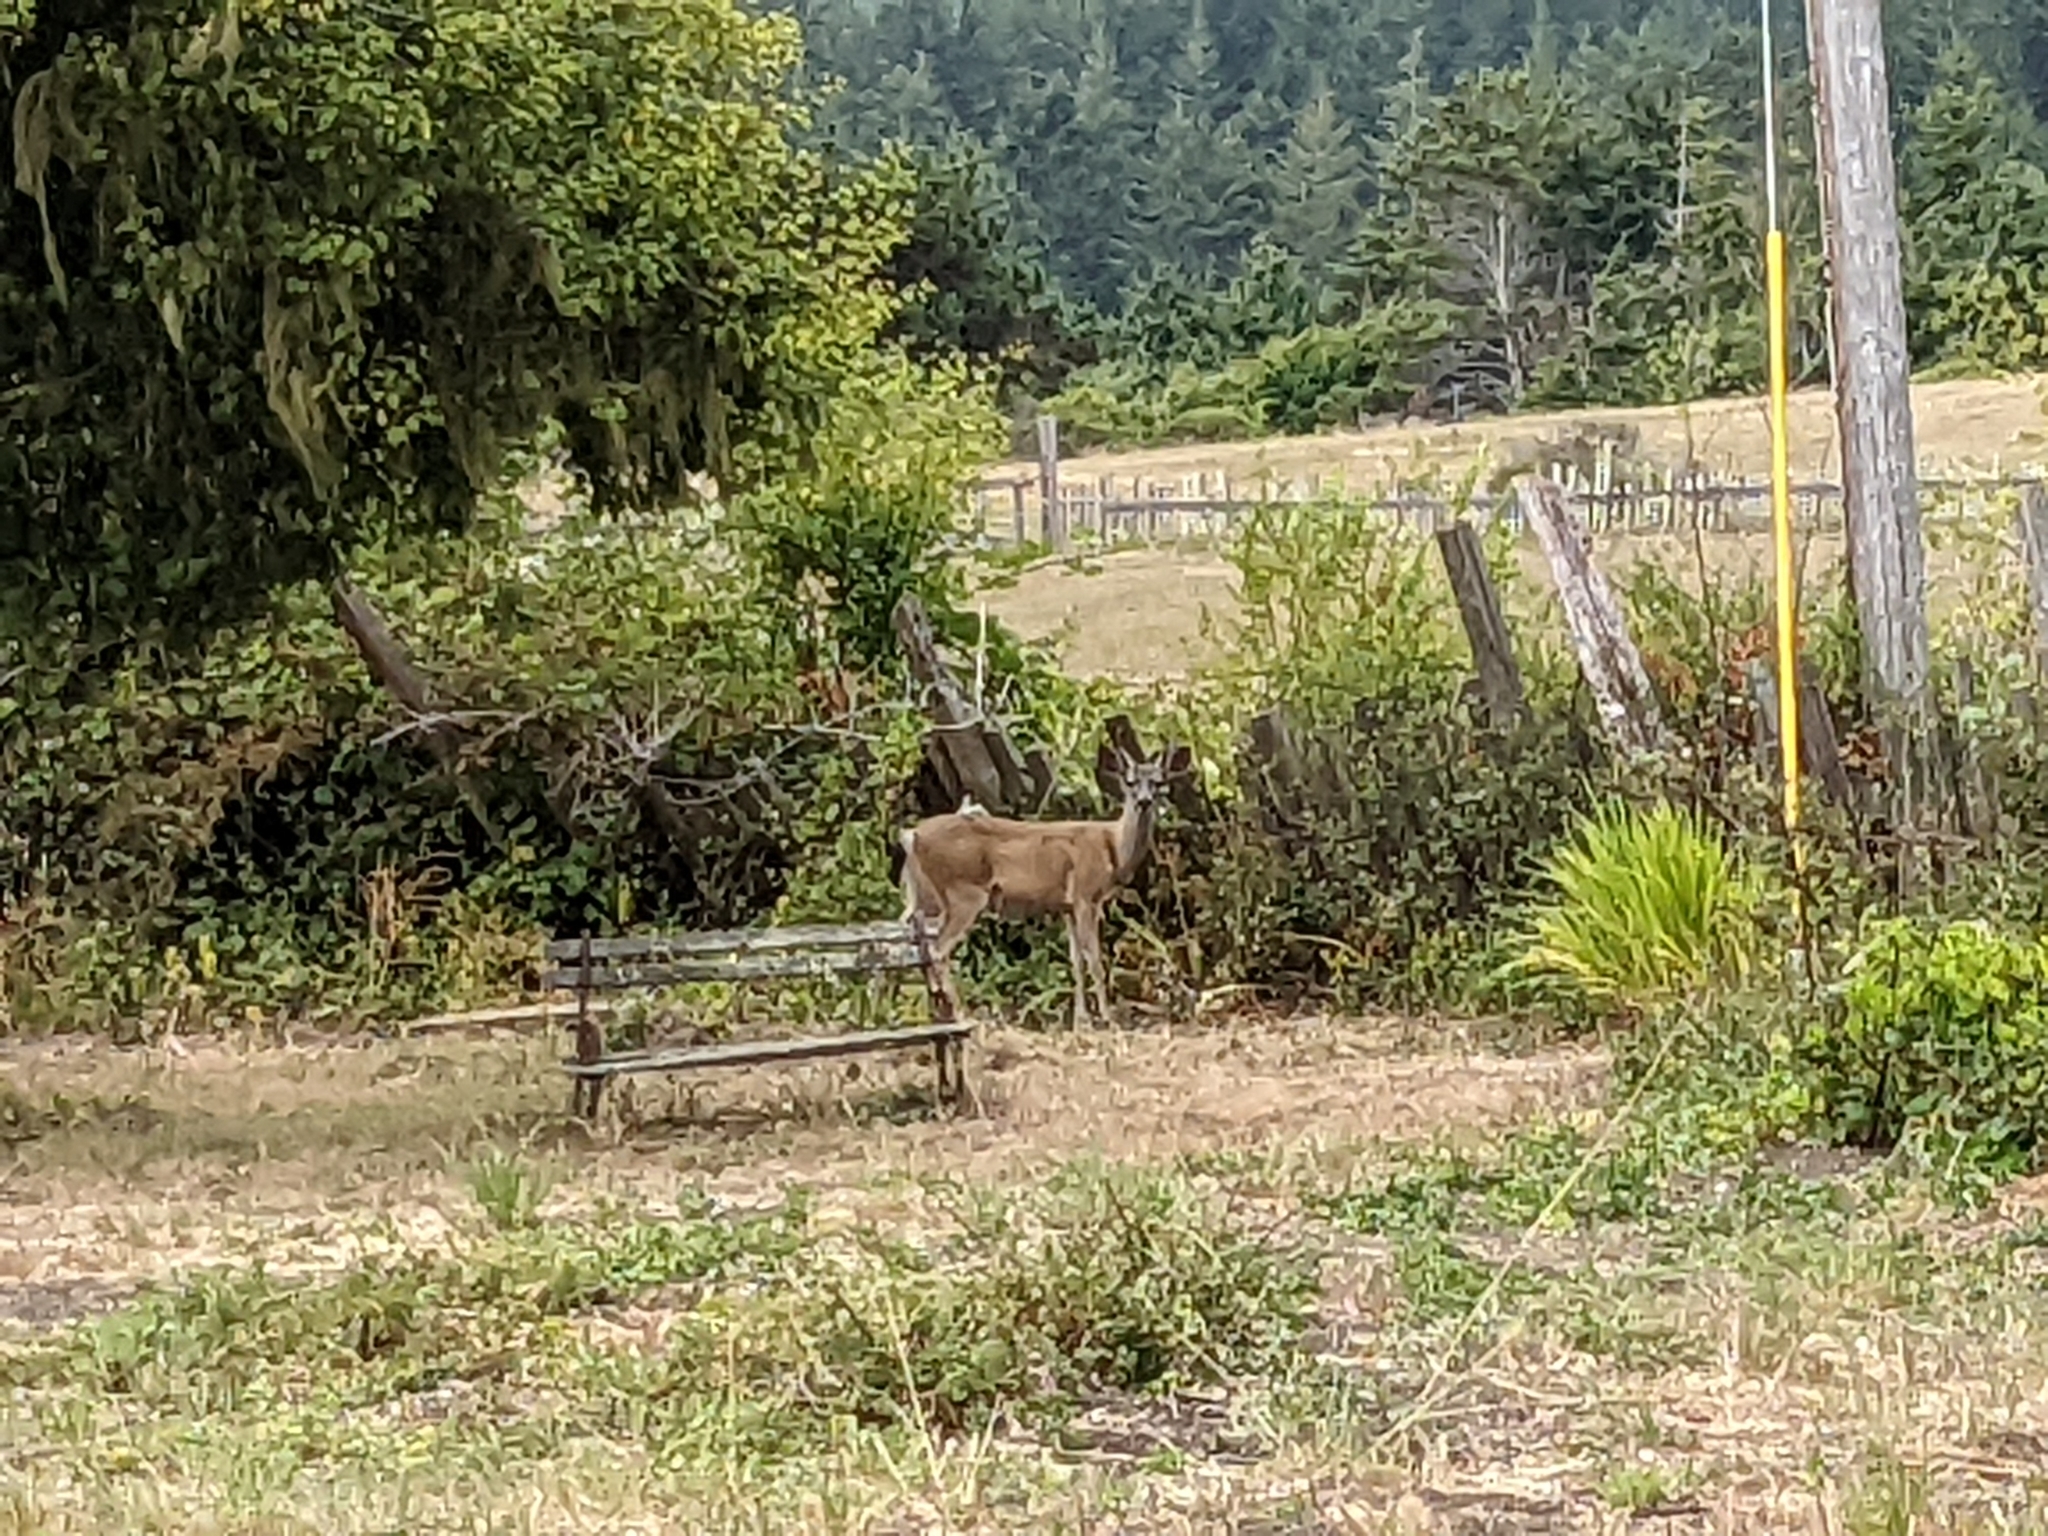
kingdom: Animalia
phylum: Chordata
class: Mammalia
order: Artiodactyla
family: Cervidae
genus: Odocoileus
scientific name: Odocoileus hemionus
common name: Mule deer
